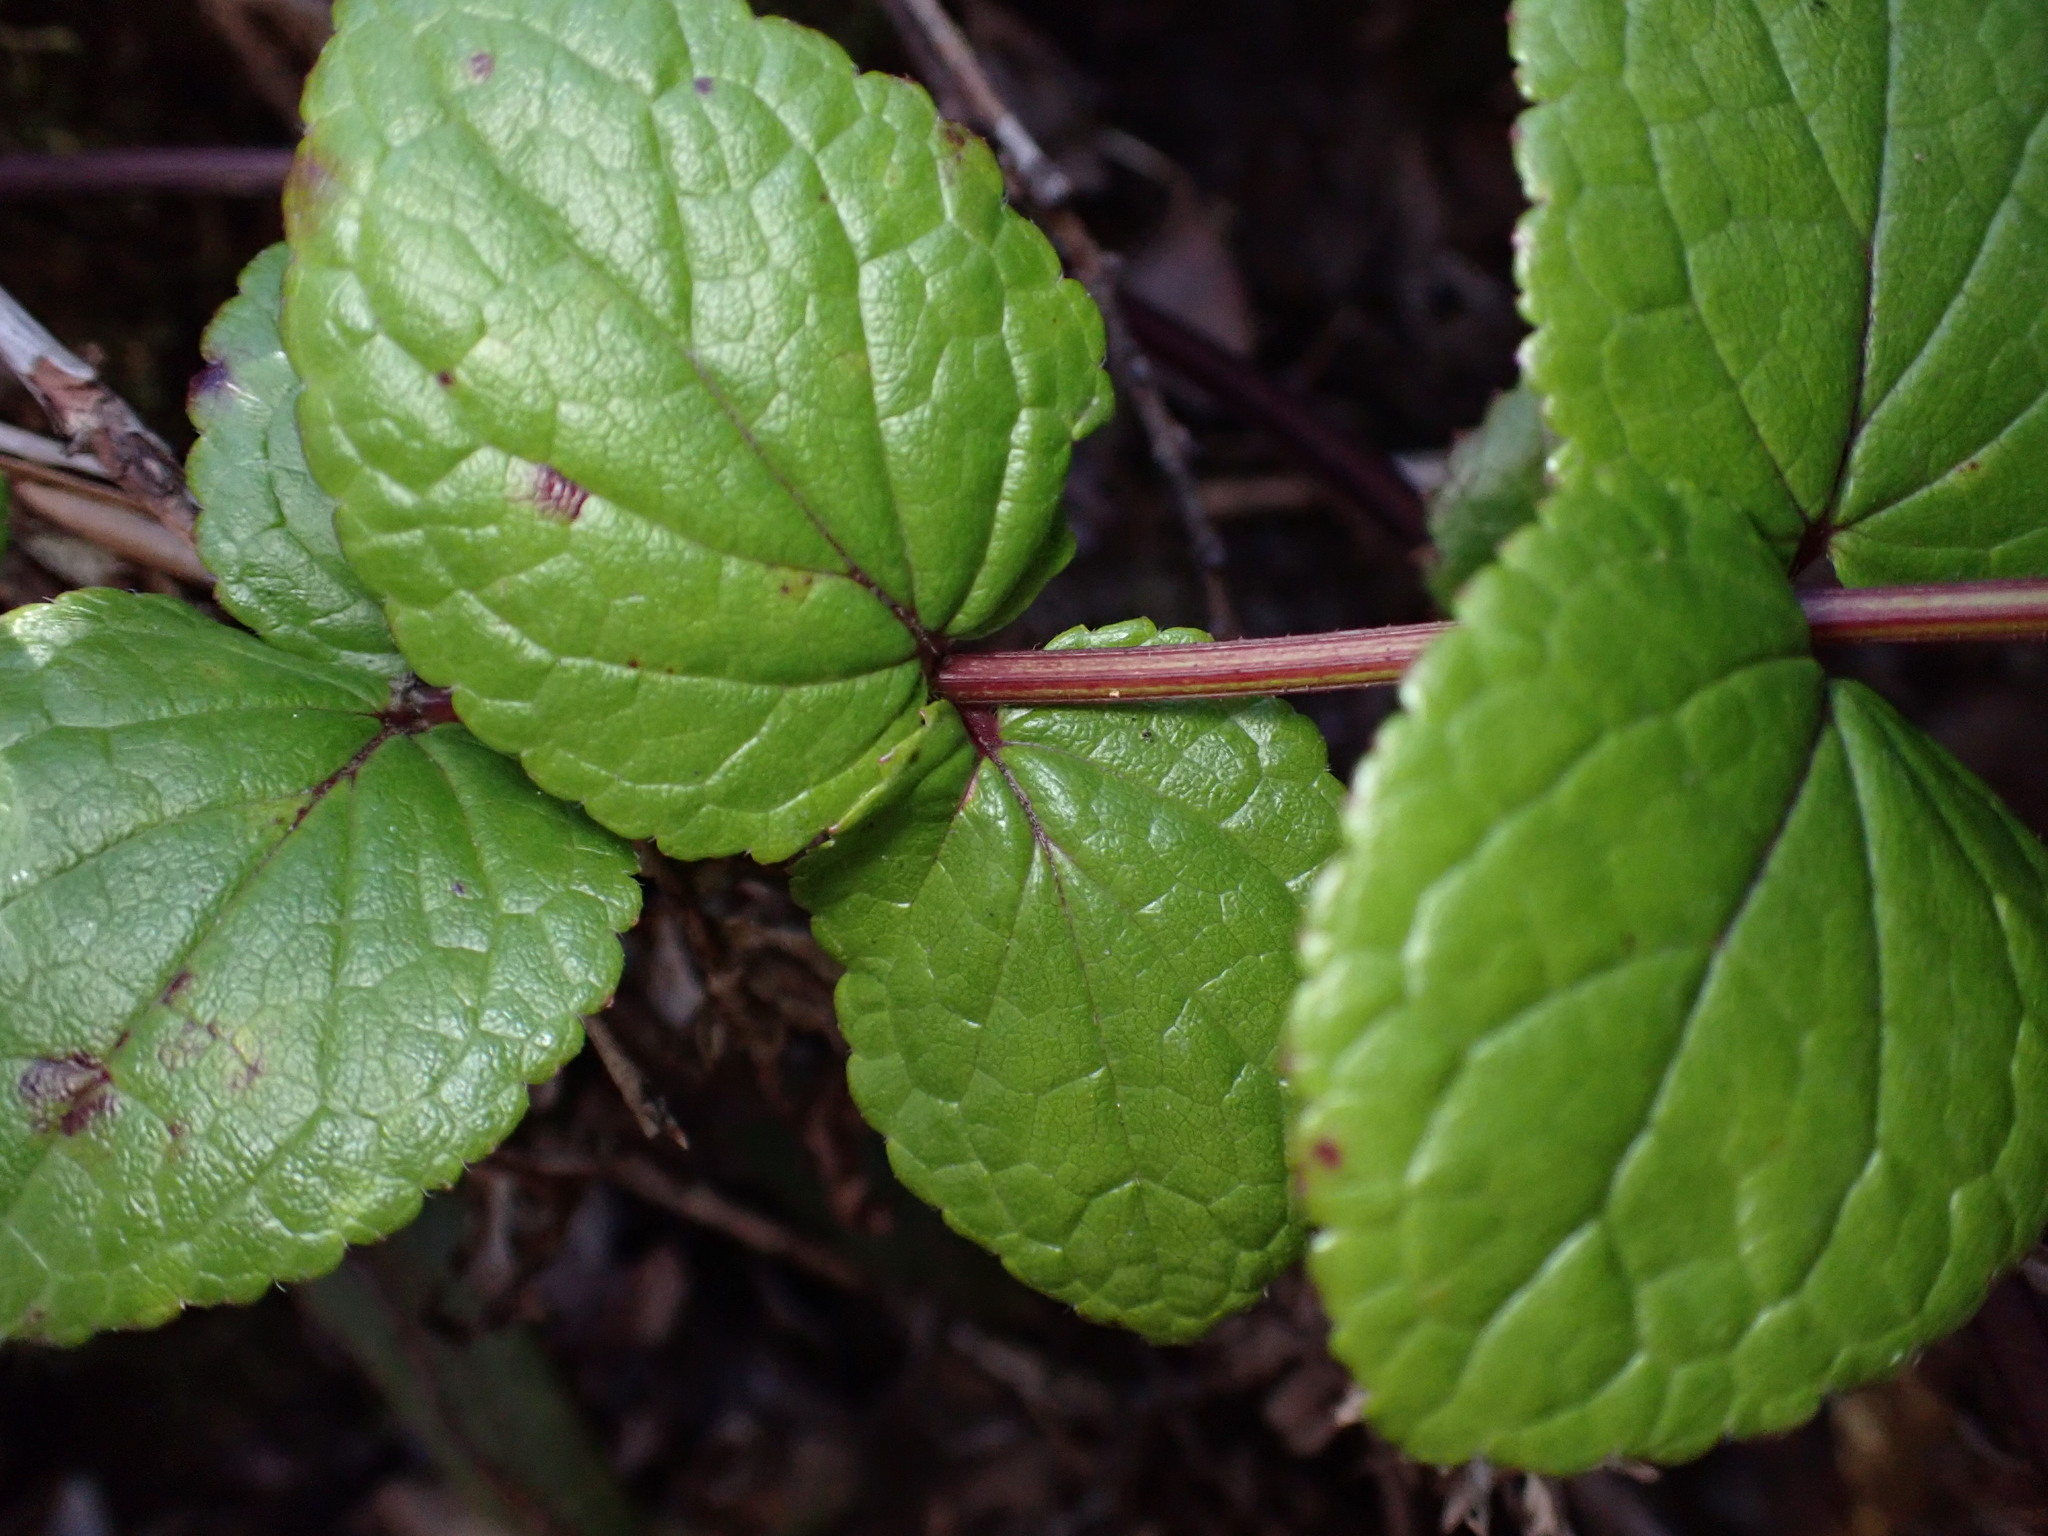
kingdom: Plantae
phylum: Tracheophyta
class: Magnoliopsida
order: Lamiales
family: Lamiaceae
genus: Stenogyne
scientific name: Stenogyne calaminthoides
